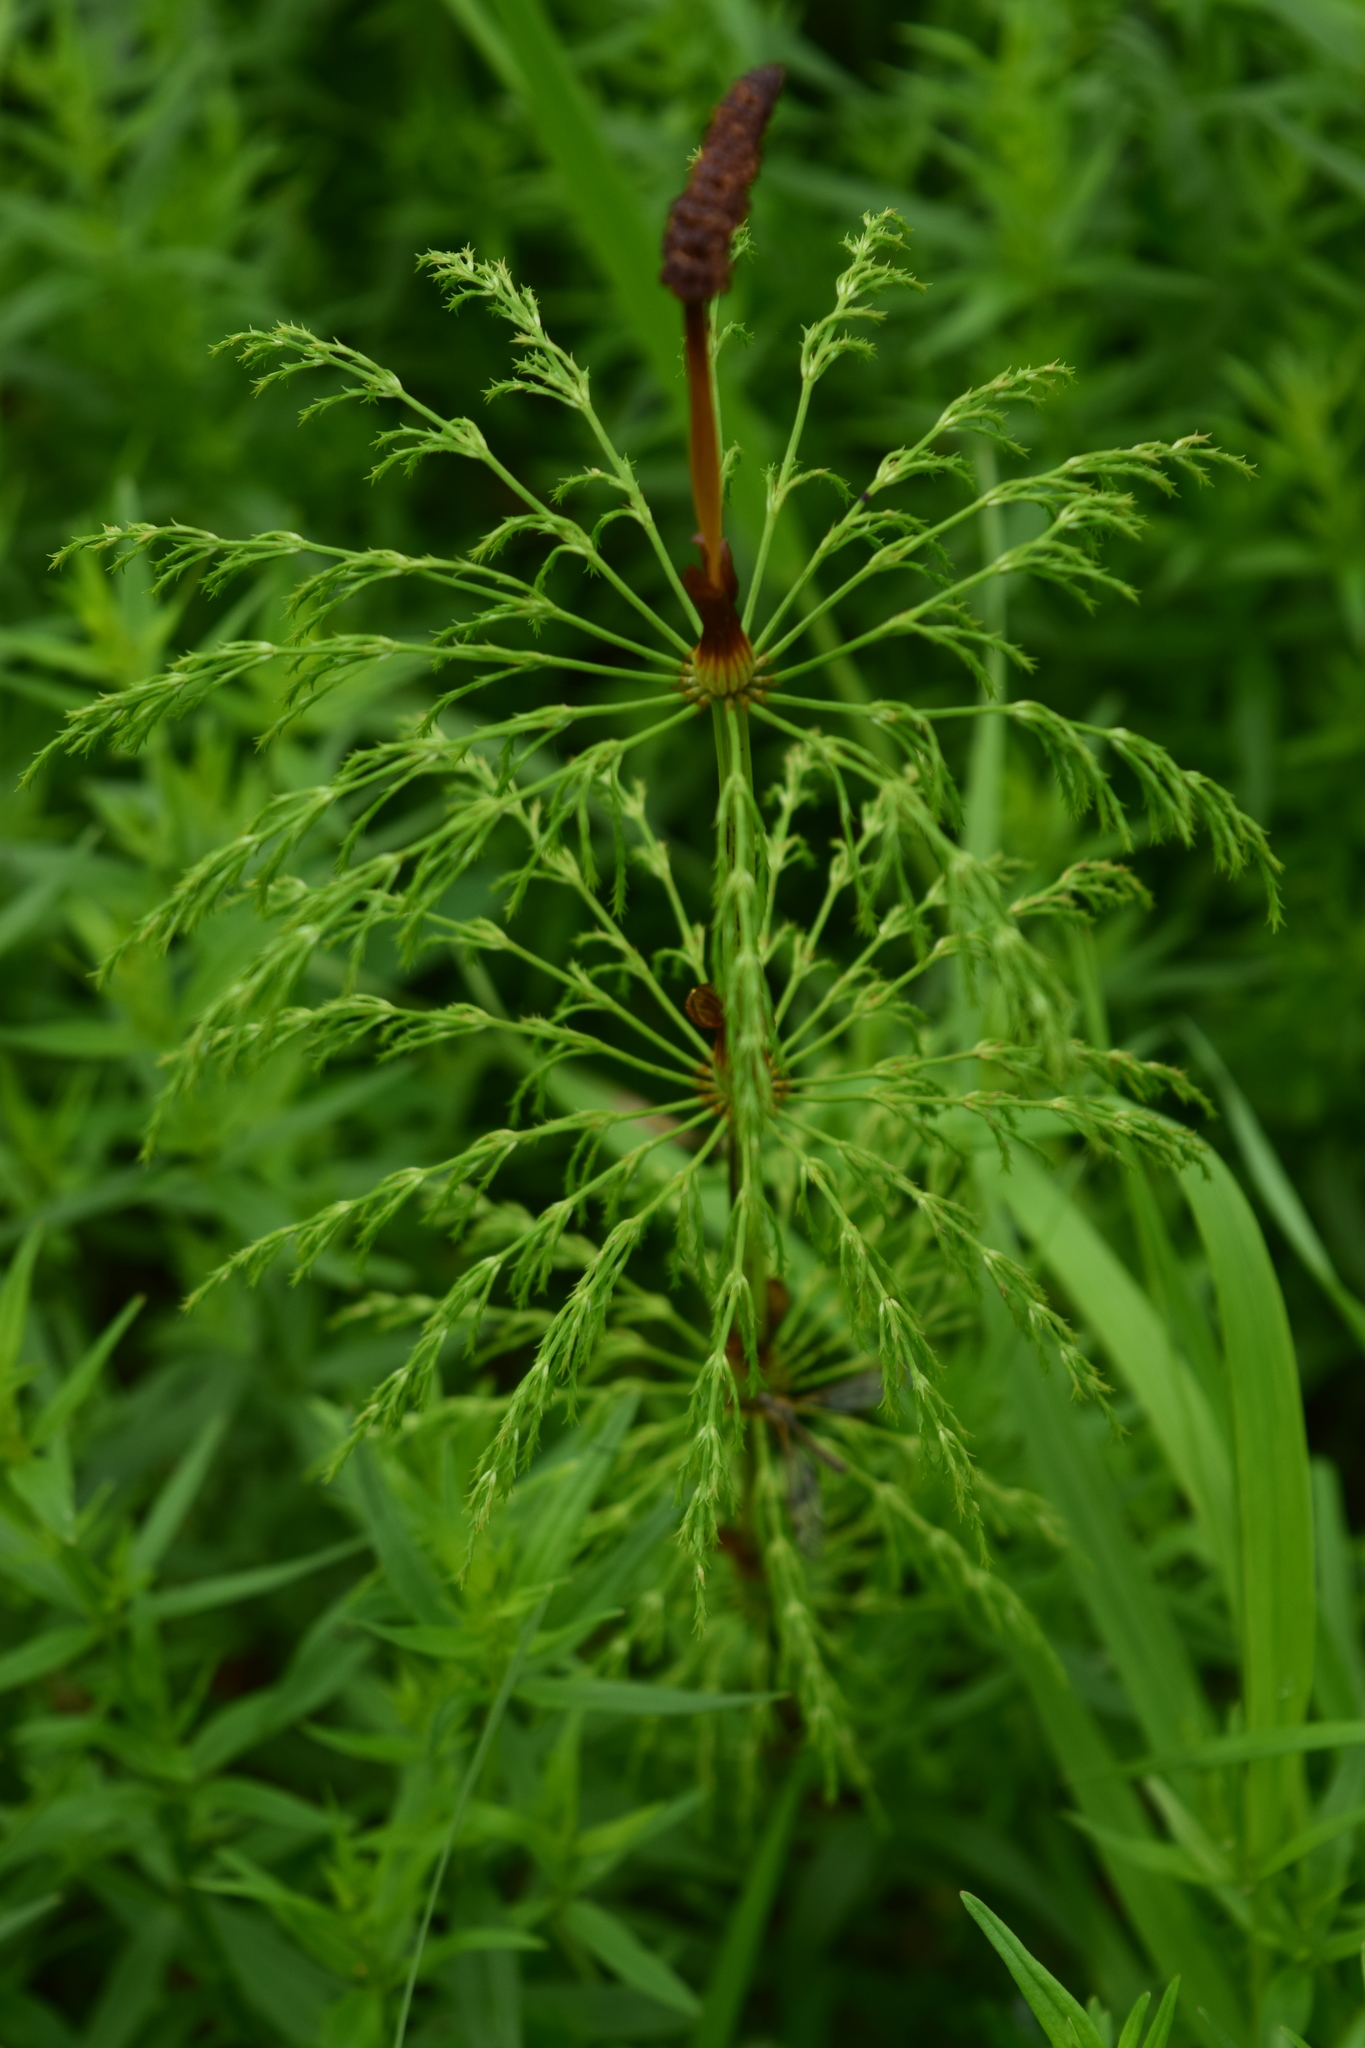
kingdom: Plantae
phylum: Tracheophyta
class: Polypodiopsida
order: Equisetales
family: Equisetaceae
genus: Equisetum
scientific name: Equisetum sylvaticum
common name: Wood horsetail
